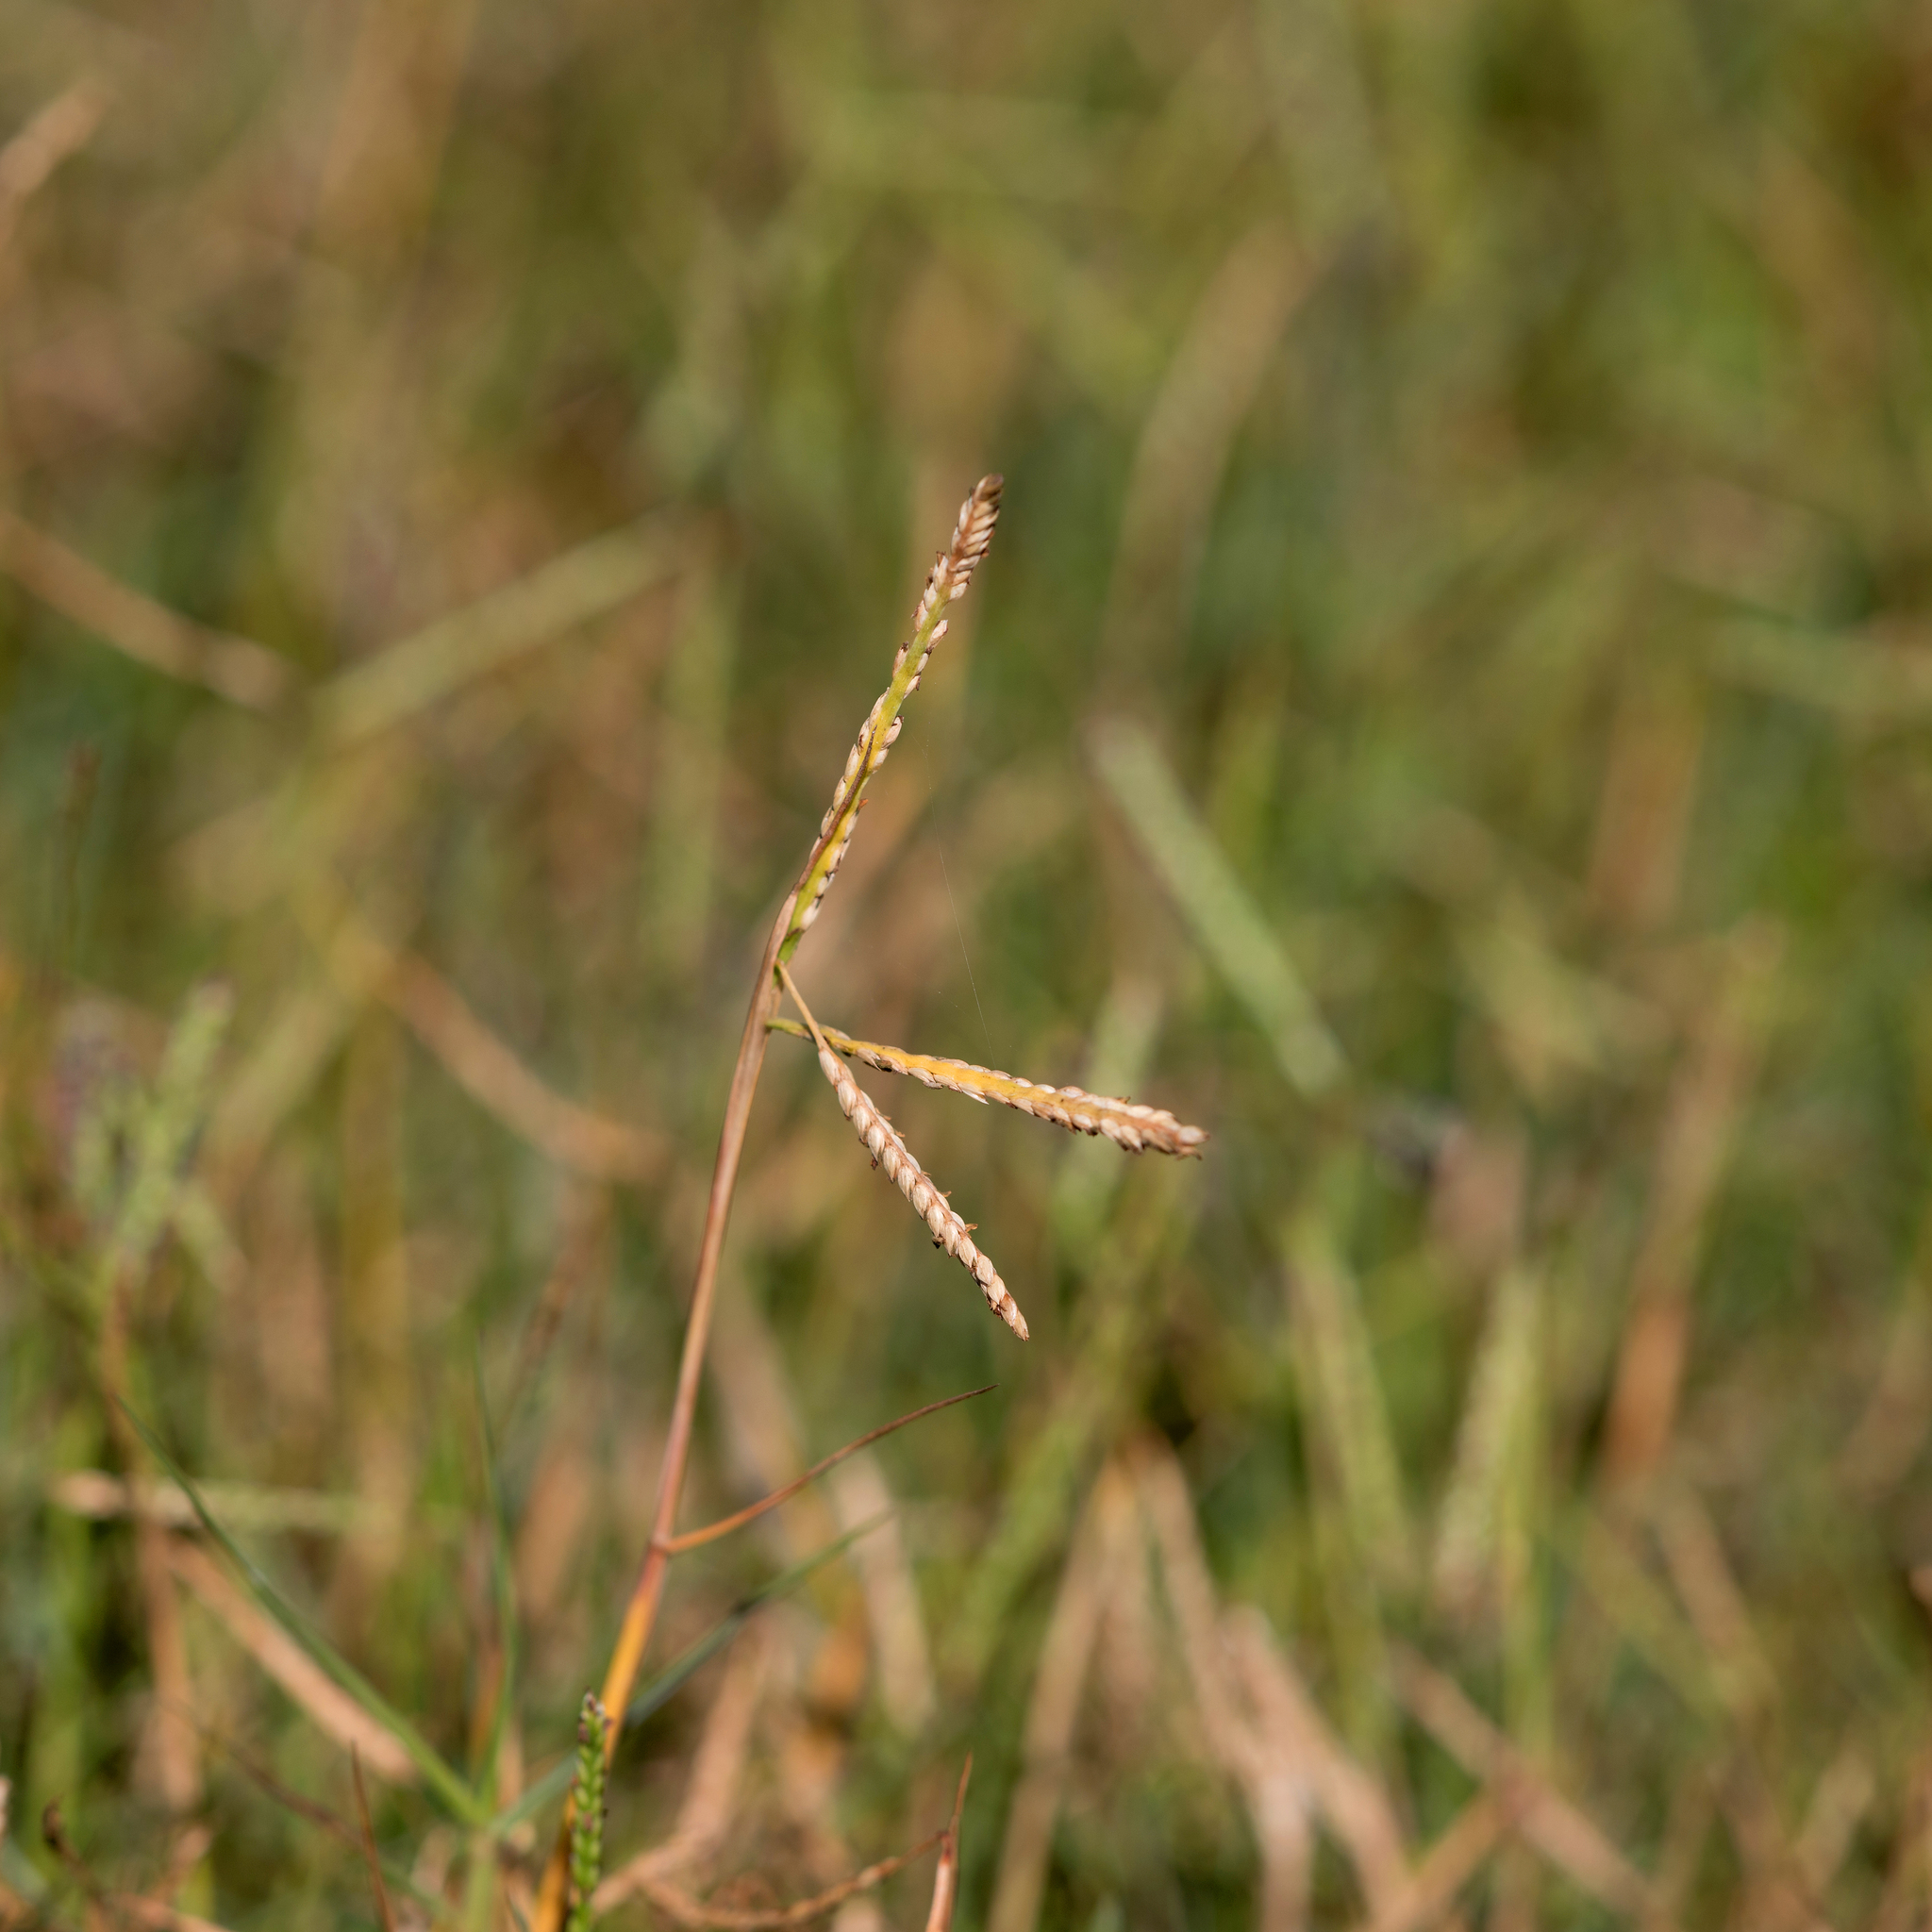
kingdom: Plantae
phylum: Tracheophyta
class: Liliopsida
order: Poales
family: Poaceae
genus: Paspalum
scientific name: Paspalum vaginatum
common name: Seashore paspalum
